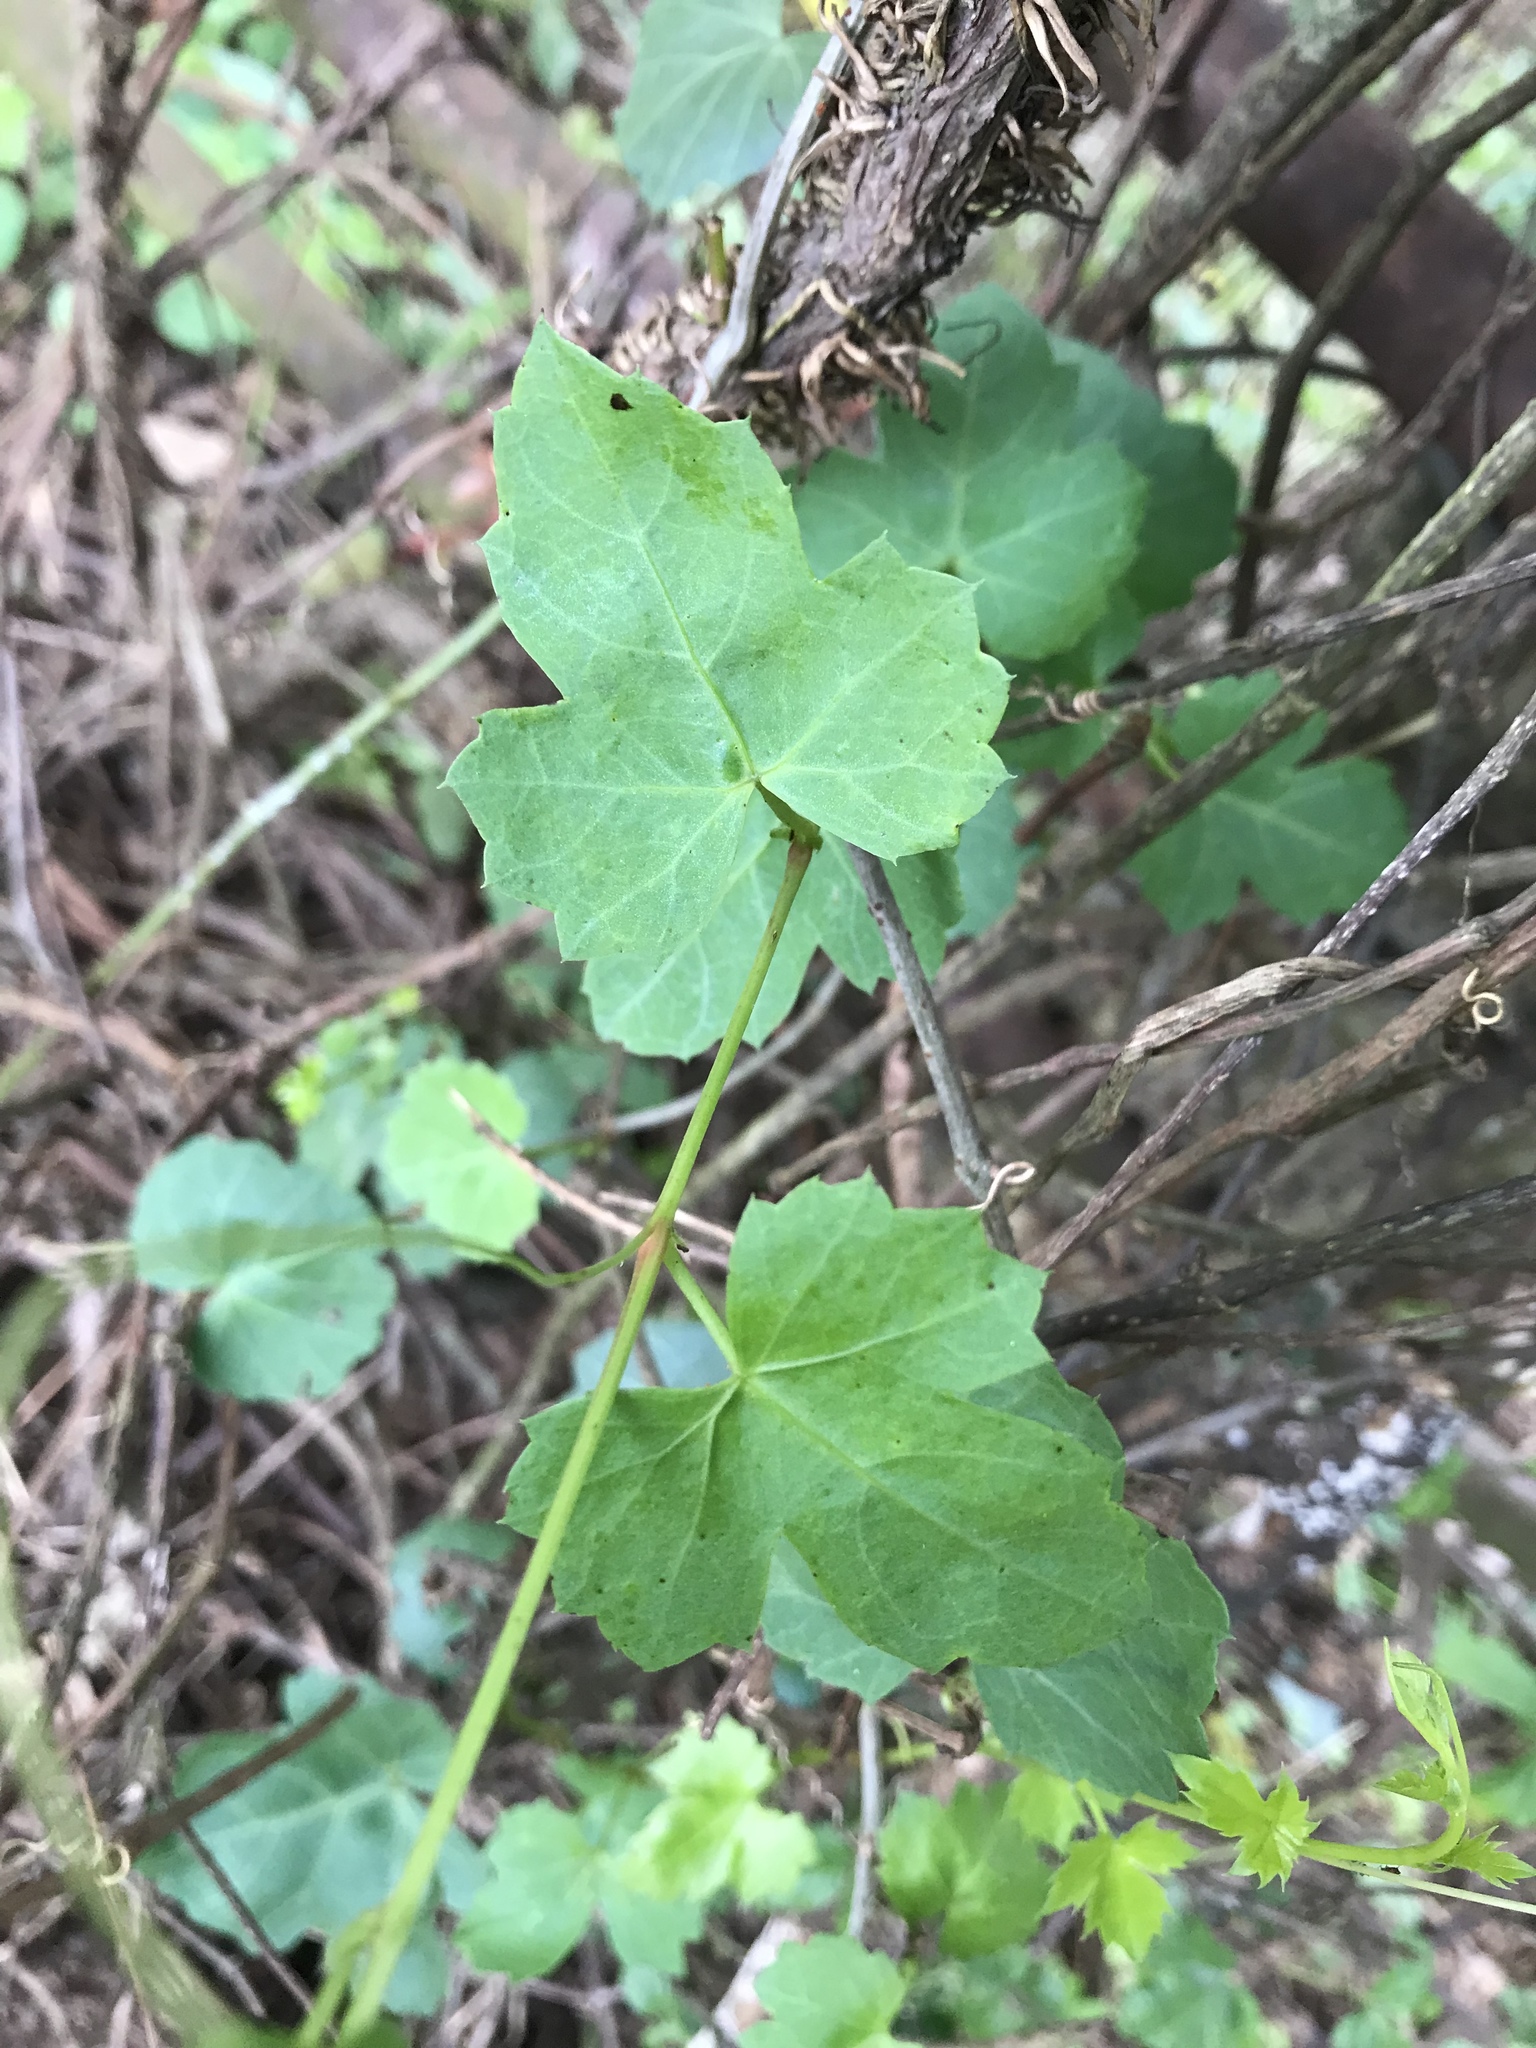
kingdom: Plantae
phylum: Tracheophyta
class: Magnoliopsida
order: Vitales
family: Vitaceae
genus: Cissus
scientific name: Cissus trifoliata
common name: Vine-sorrel
